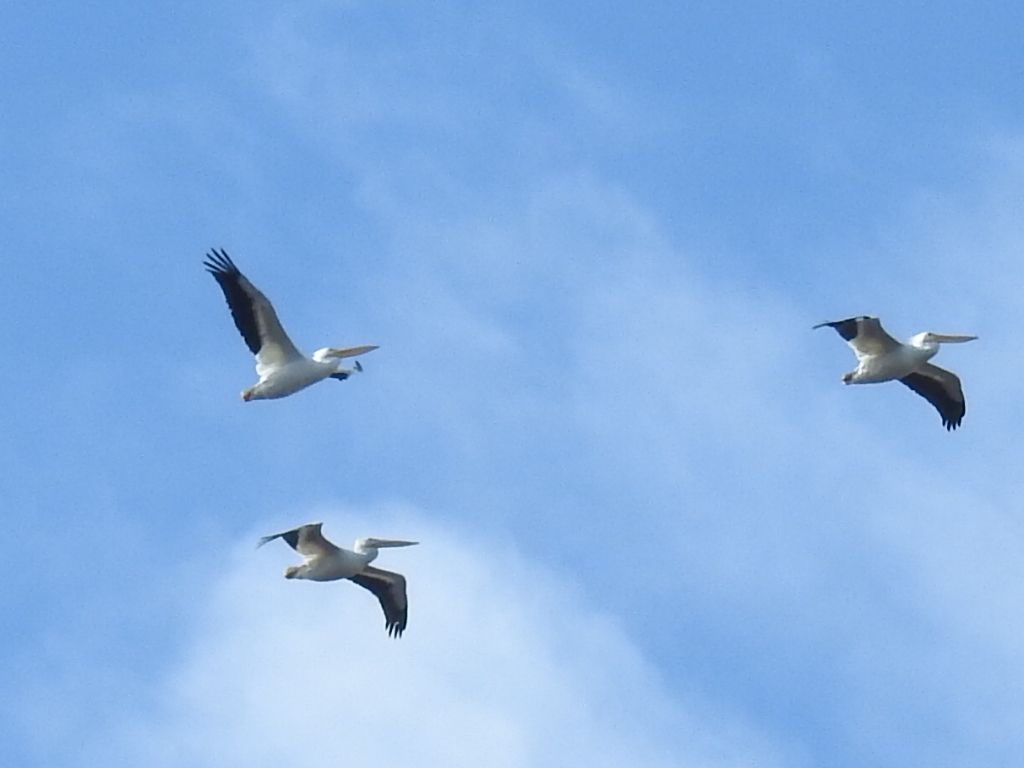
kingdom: Animalia
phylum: Chordata
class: Aves
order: Pelecaniformes
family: Pelecanidae
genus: Pelecanus
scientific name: Pelecanus erythrorhynchos
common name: American white pelican
